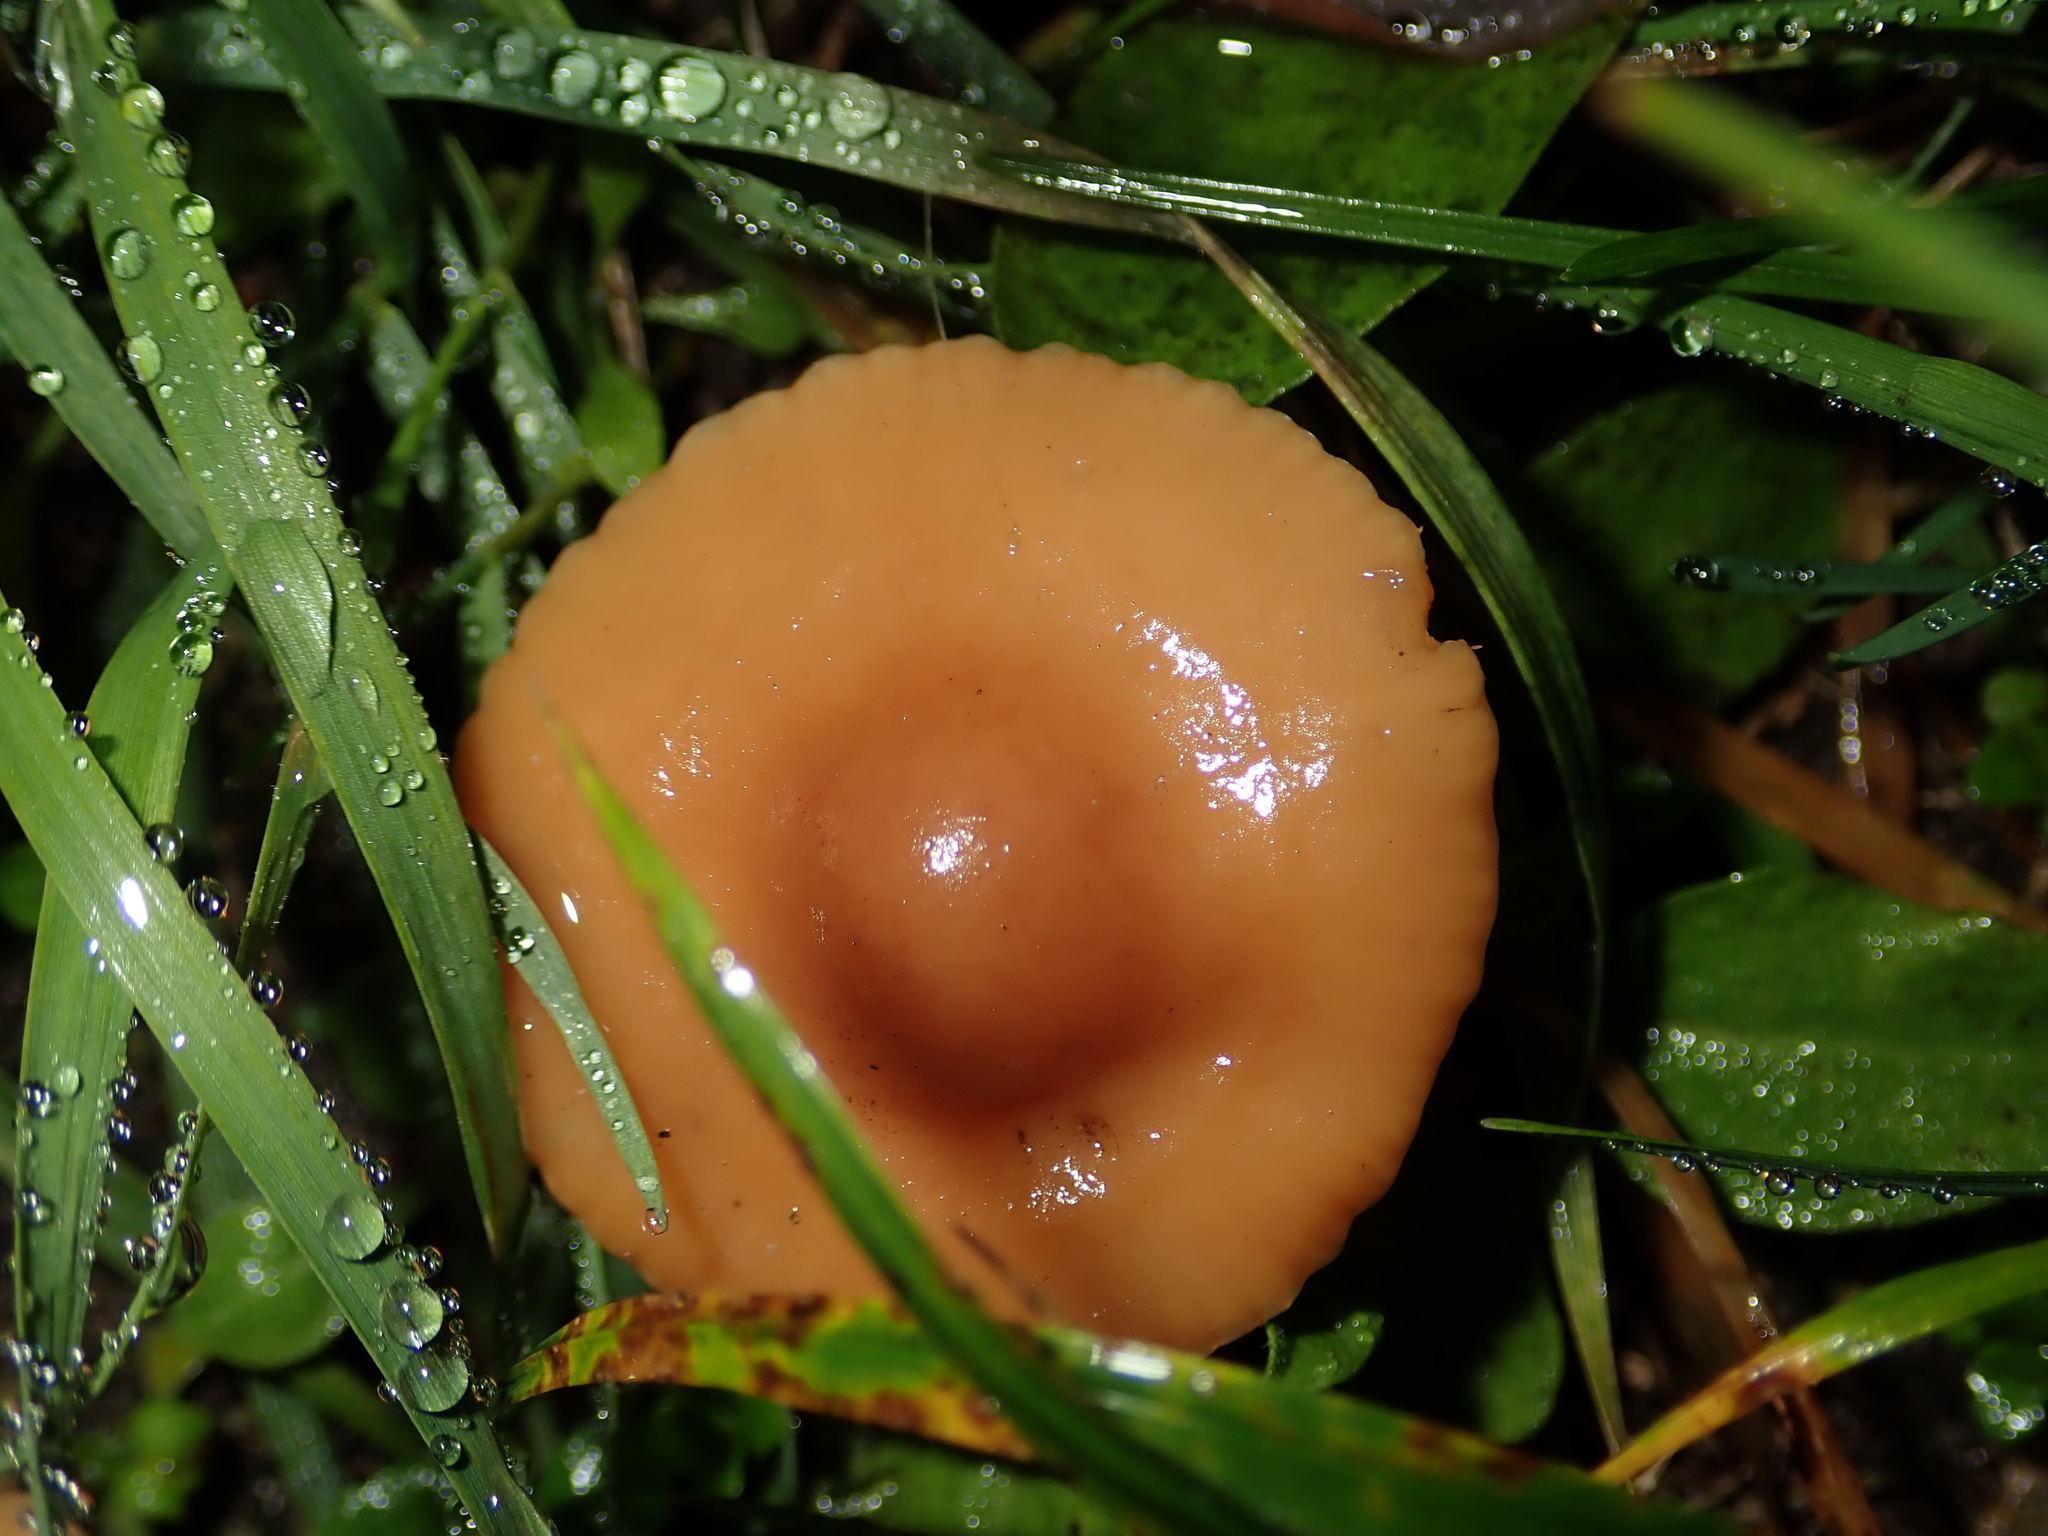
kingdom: Fungi
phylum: Basidiomycota
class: Agaricomycetes
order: Agaricales
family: Marasmiaceae
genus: Marasmius
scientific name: Marasmius oreades
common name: Fairy ring champignon
